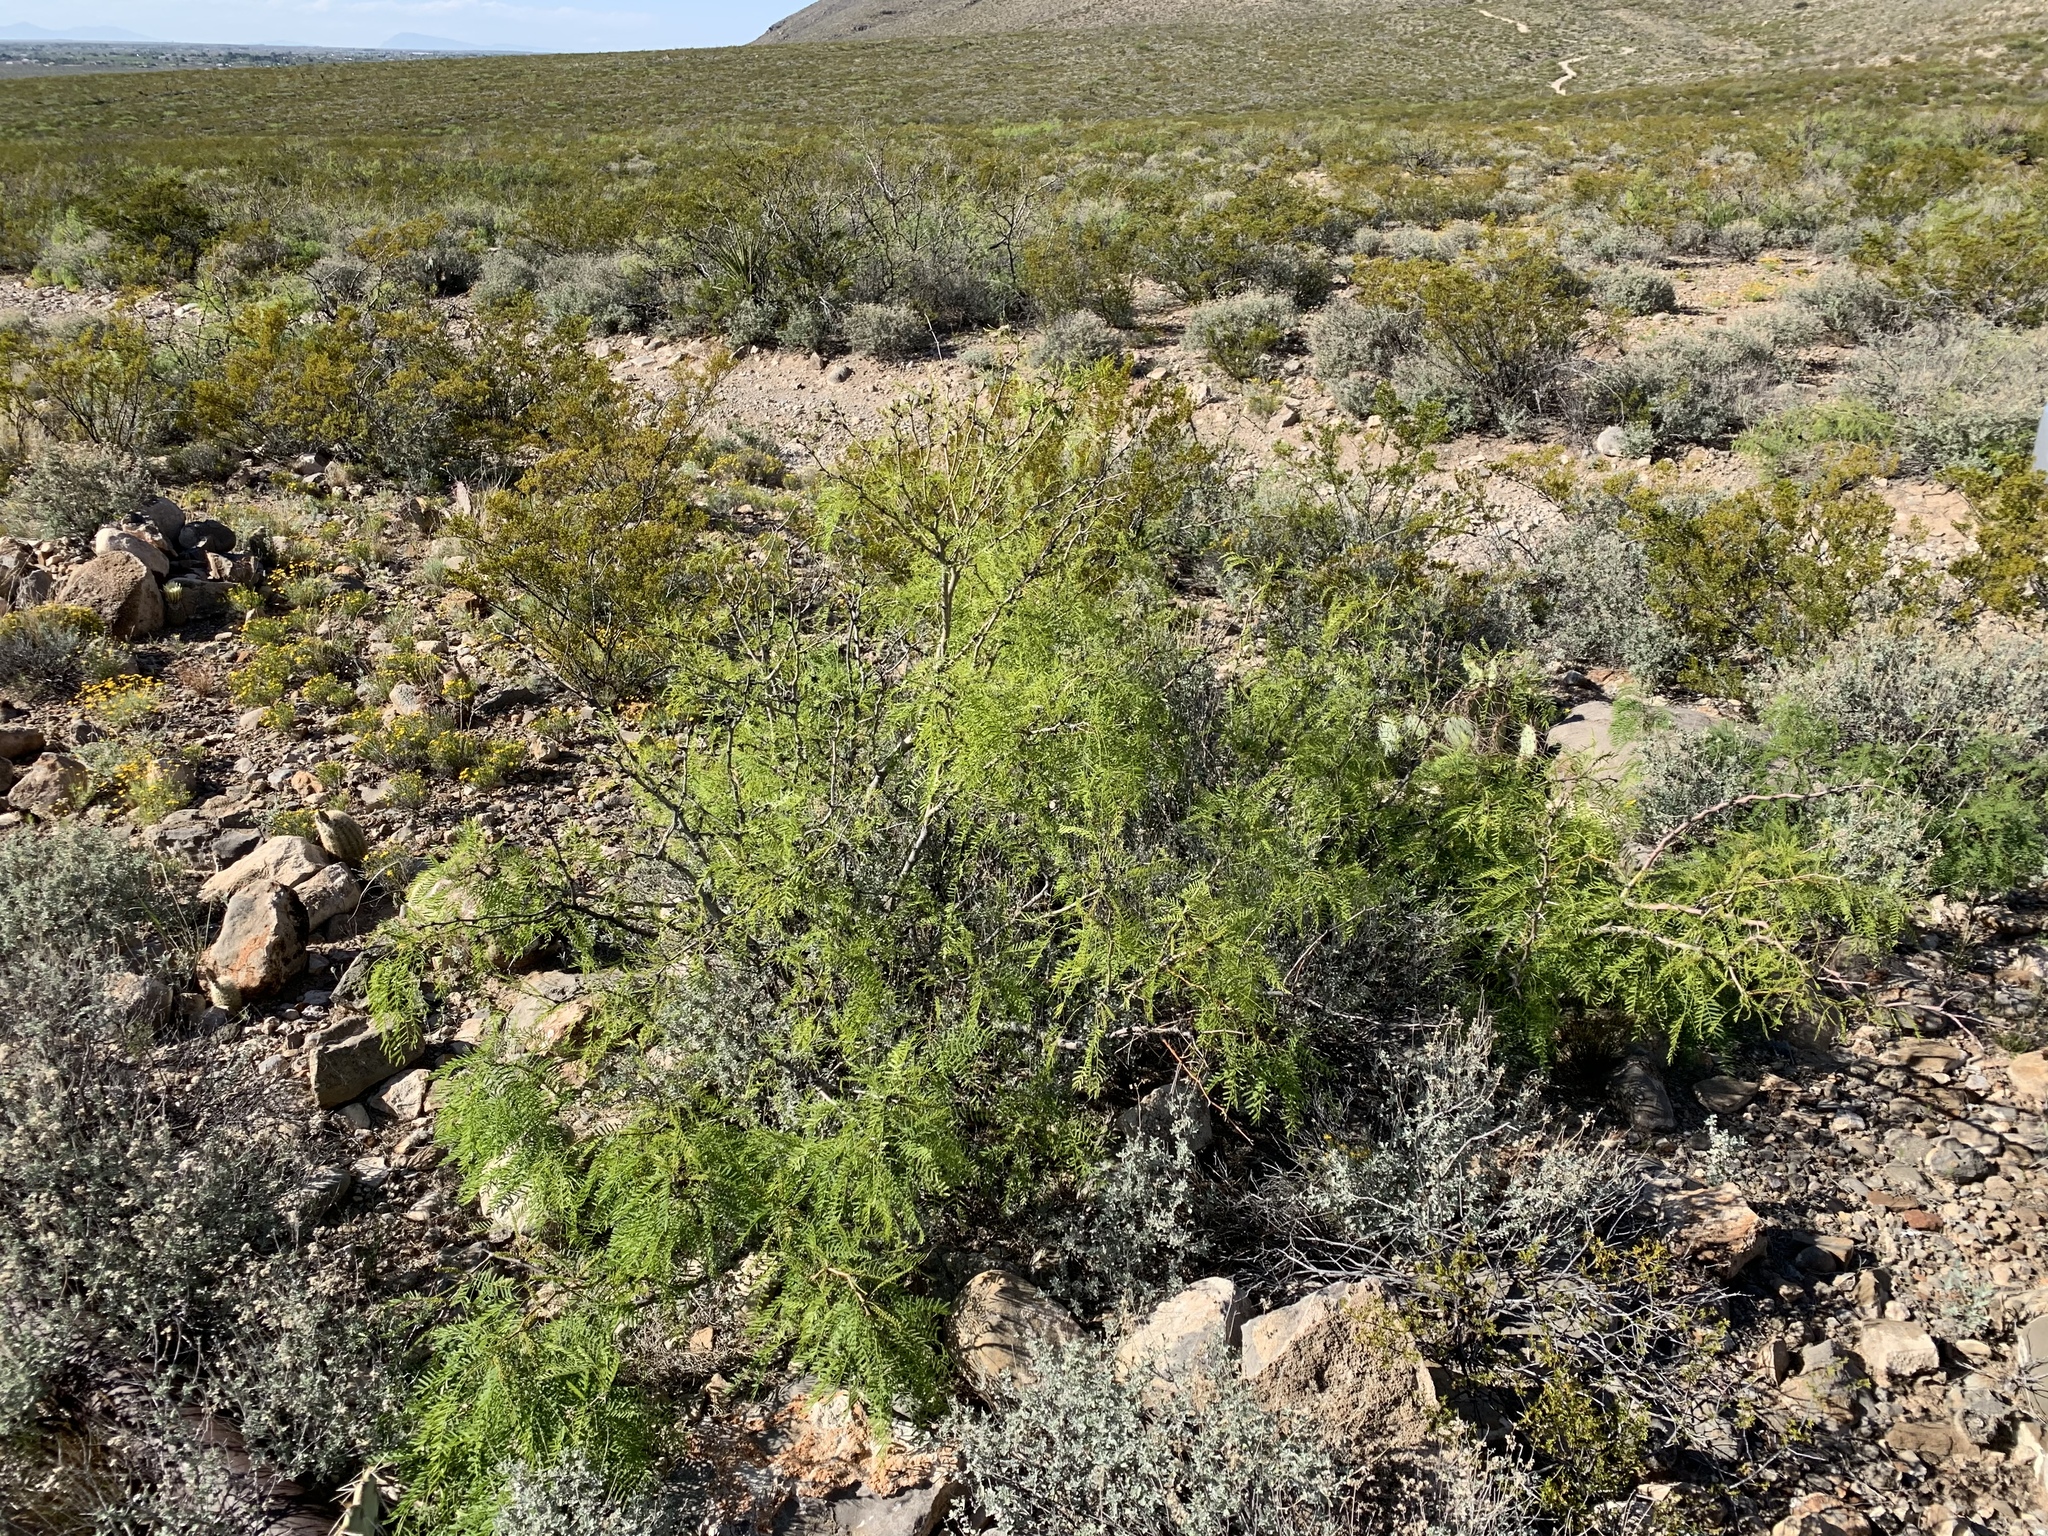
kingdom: Plantae
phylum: Tracheophyta
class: Magnoliopsida
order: Fabales
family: Fabaceae
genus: Prosopis
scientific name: Prosopis glandulosa
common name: Honey mesquite
